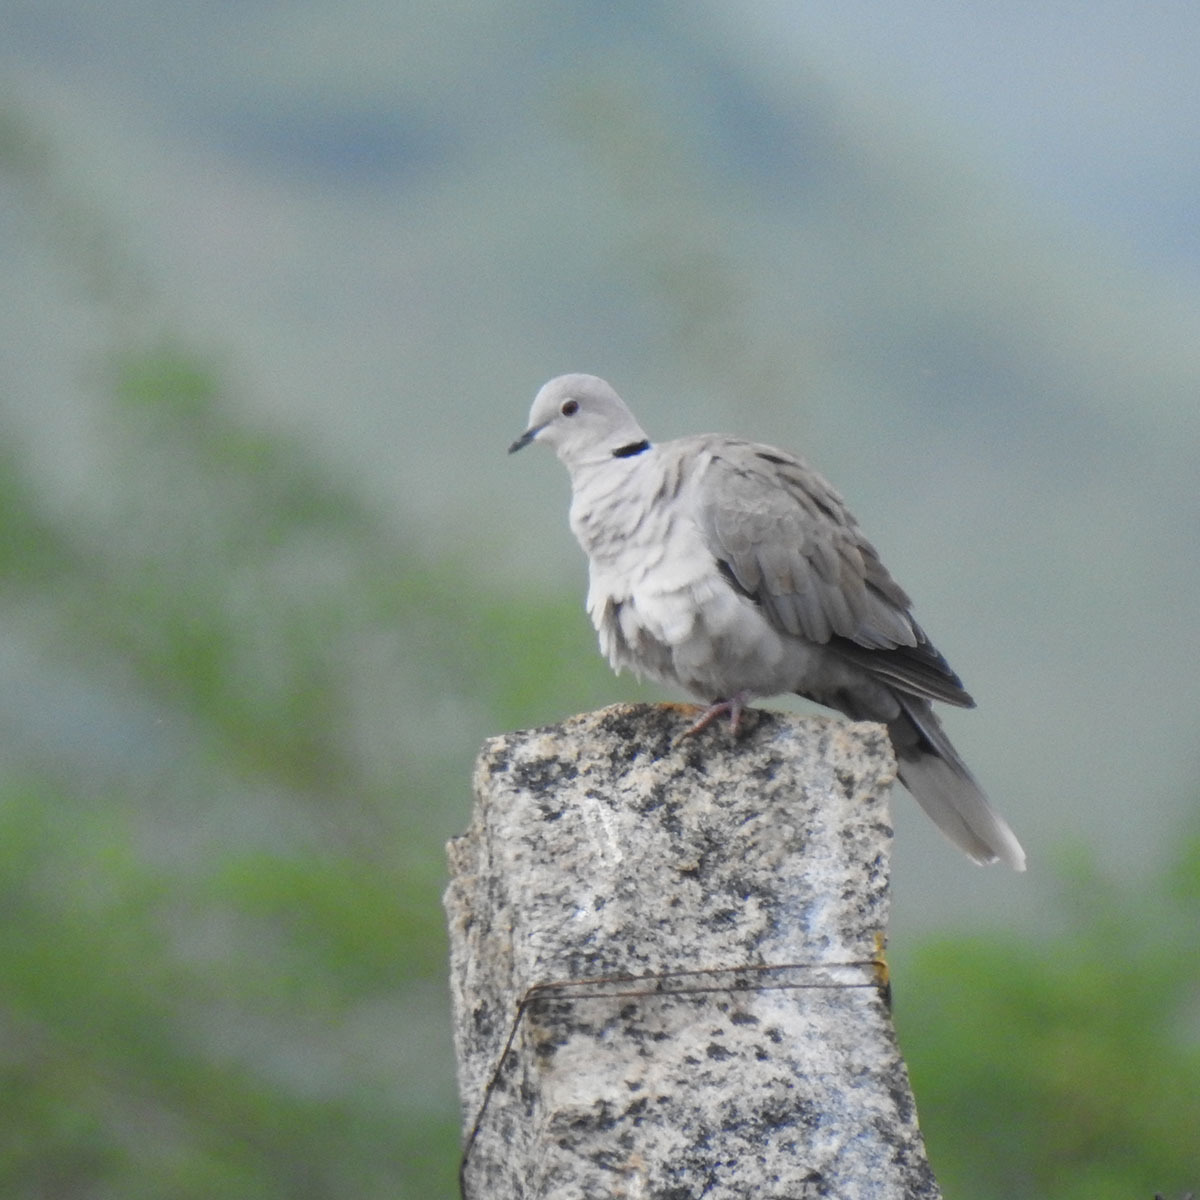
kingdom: Animalia
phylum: Chordata
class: Aves
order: Columbiformes
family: Columbidae
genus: Streptopelia
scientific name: Streptopelia decaocto
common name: Eurasian collared dove
